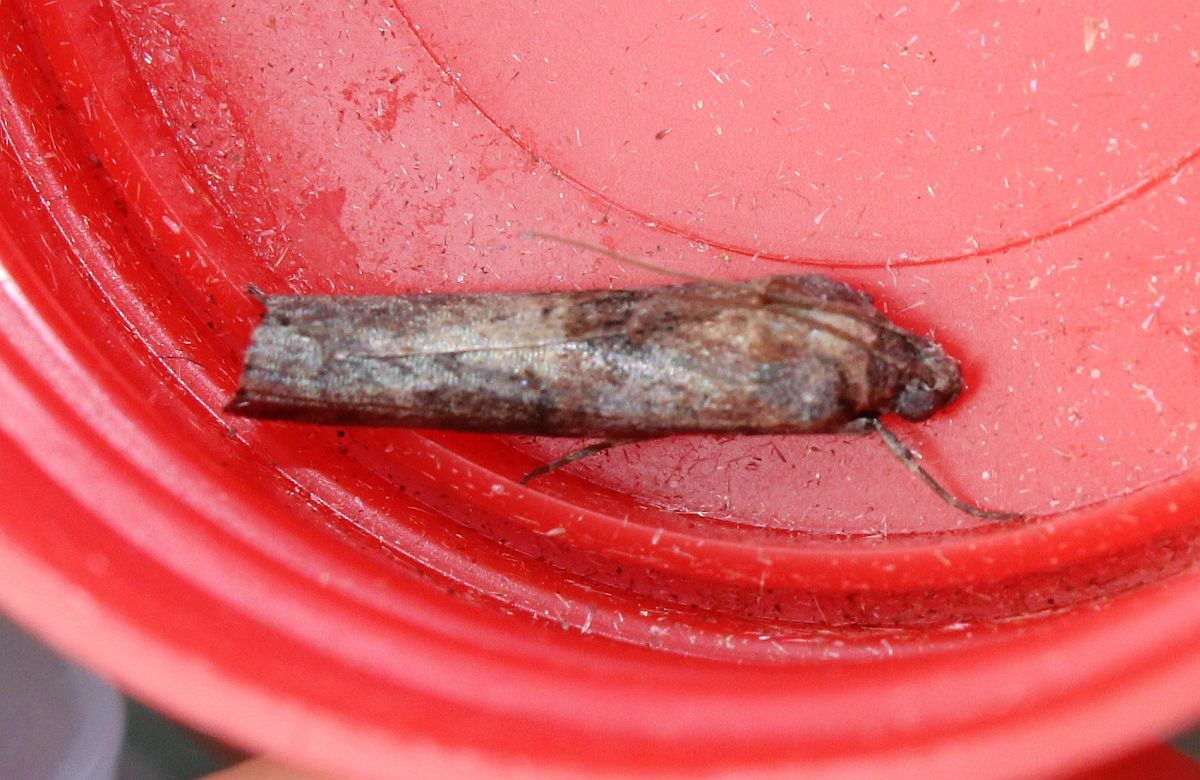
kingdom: Animalia
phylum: Arthropoda
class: Insecta
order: Lepidoptera
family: Pyralidae
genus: Phycita
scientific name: Phycita roborella
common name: Dotted oak knot-horn
